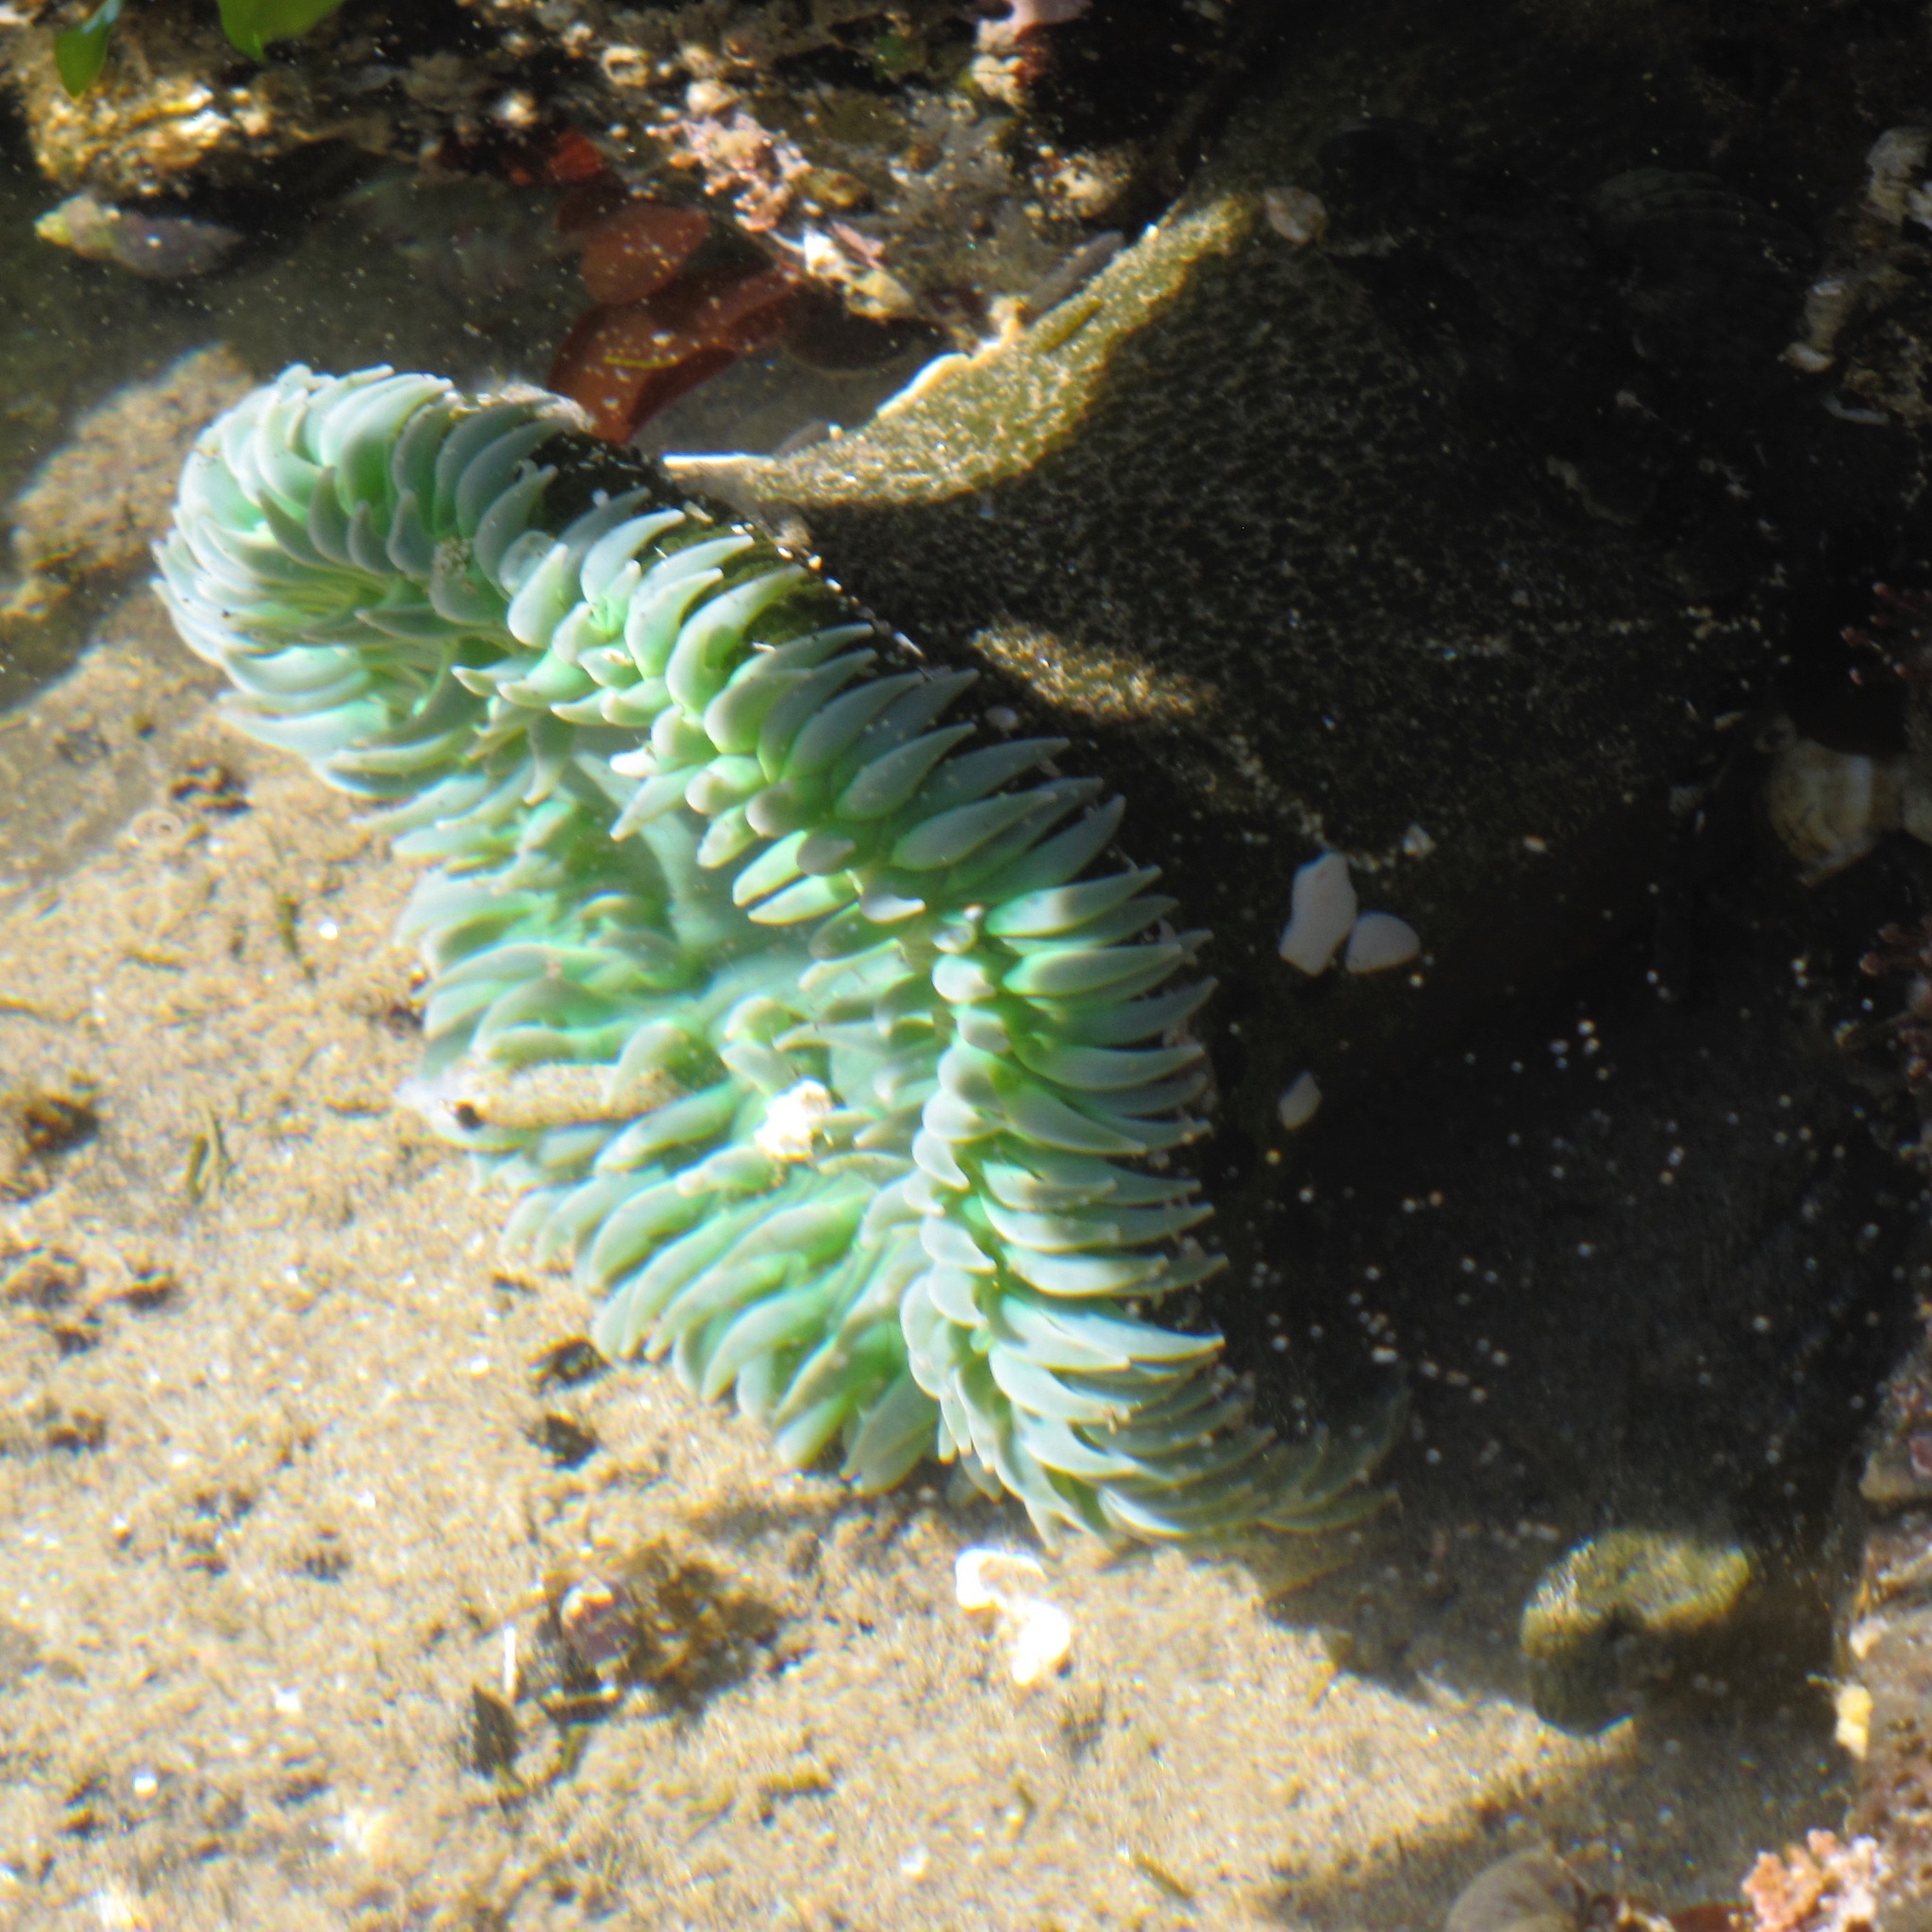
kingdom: Animalia
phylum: Cnidaria
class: Anthozoa
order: Actiniaria
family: Actiniidae
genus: Anthopleura
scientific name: Anthopleura xanthogrammica
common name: Giant green anemone
